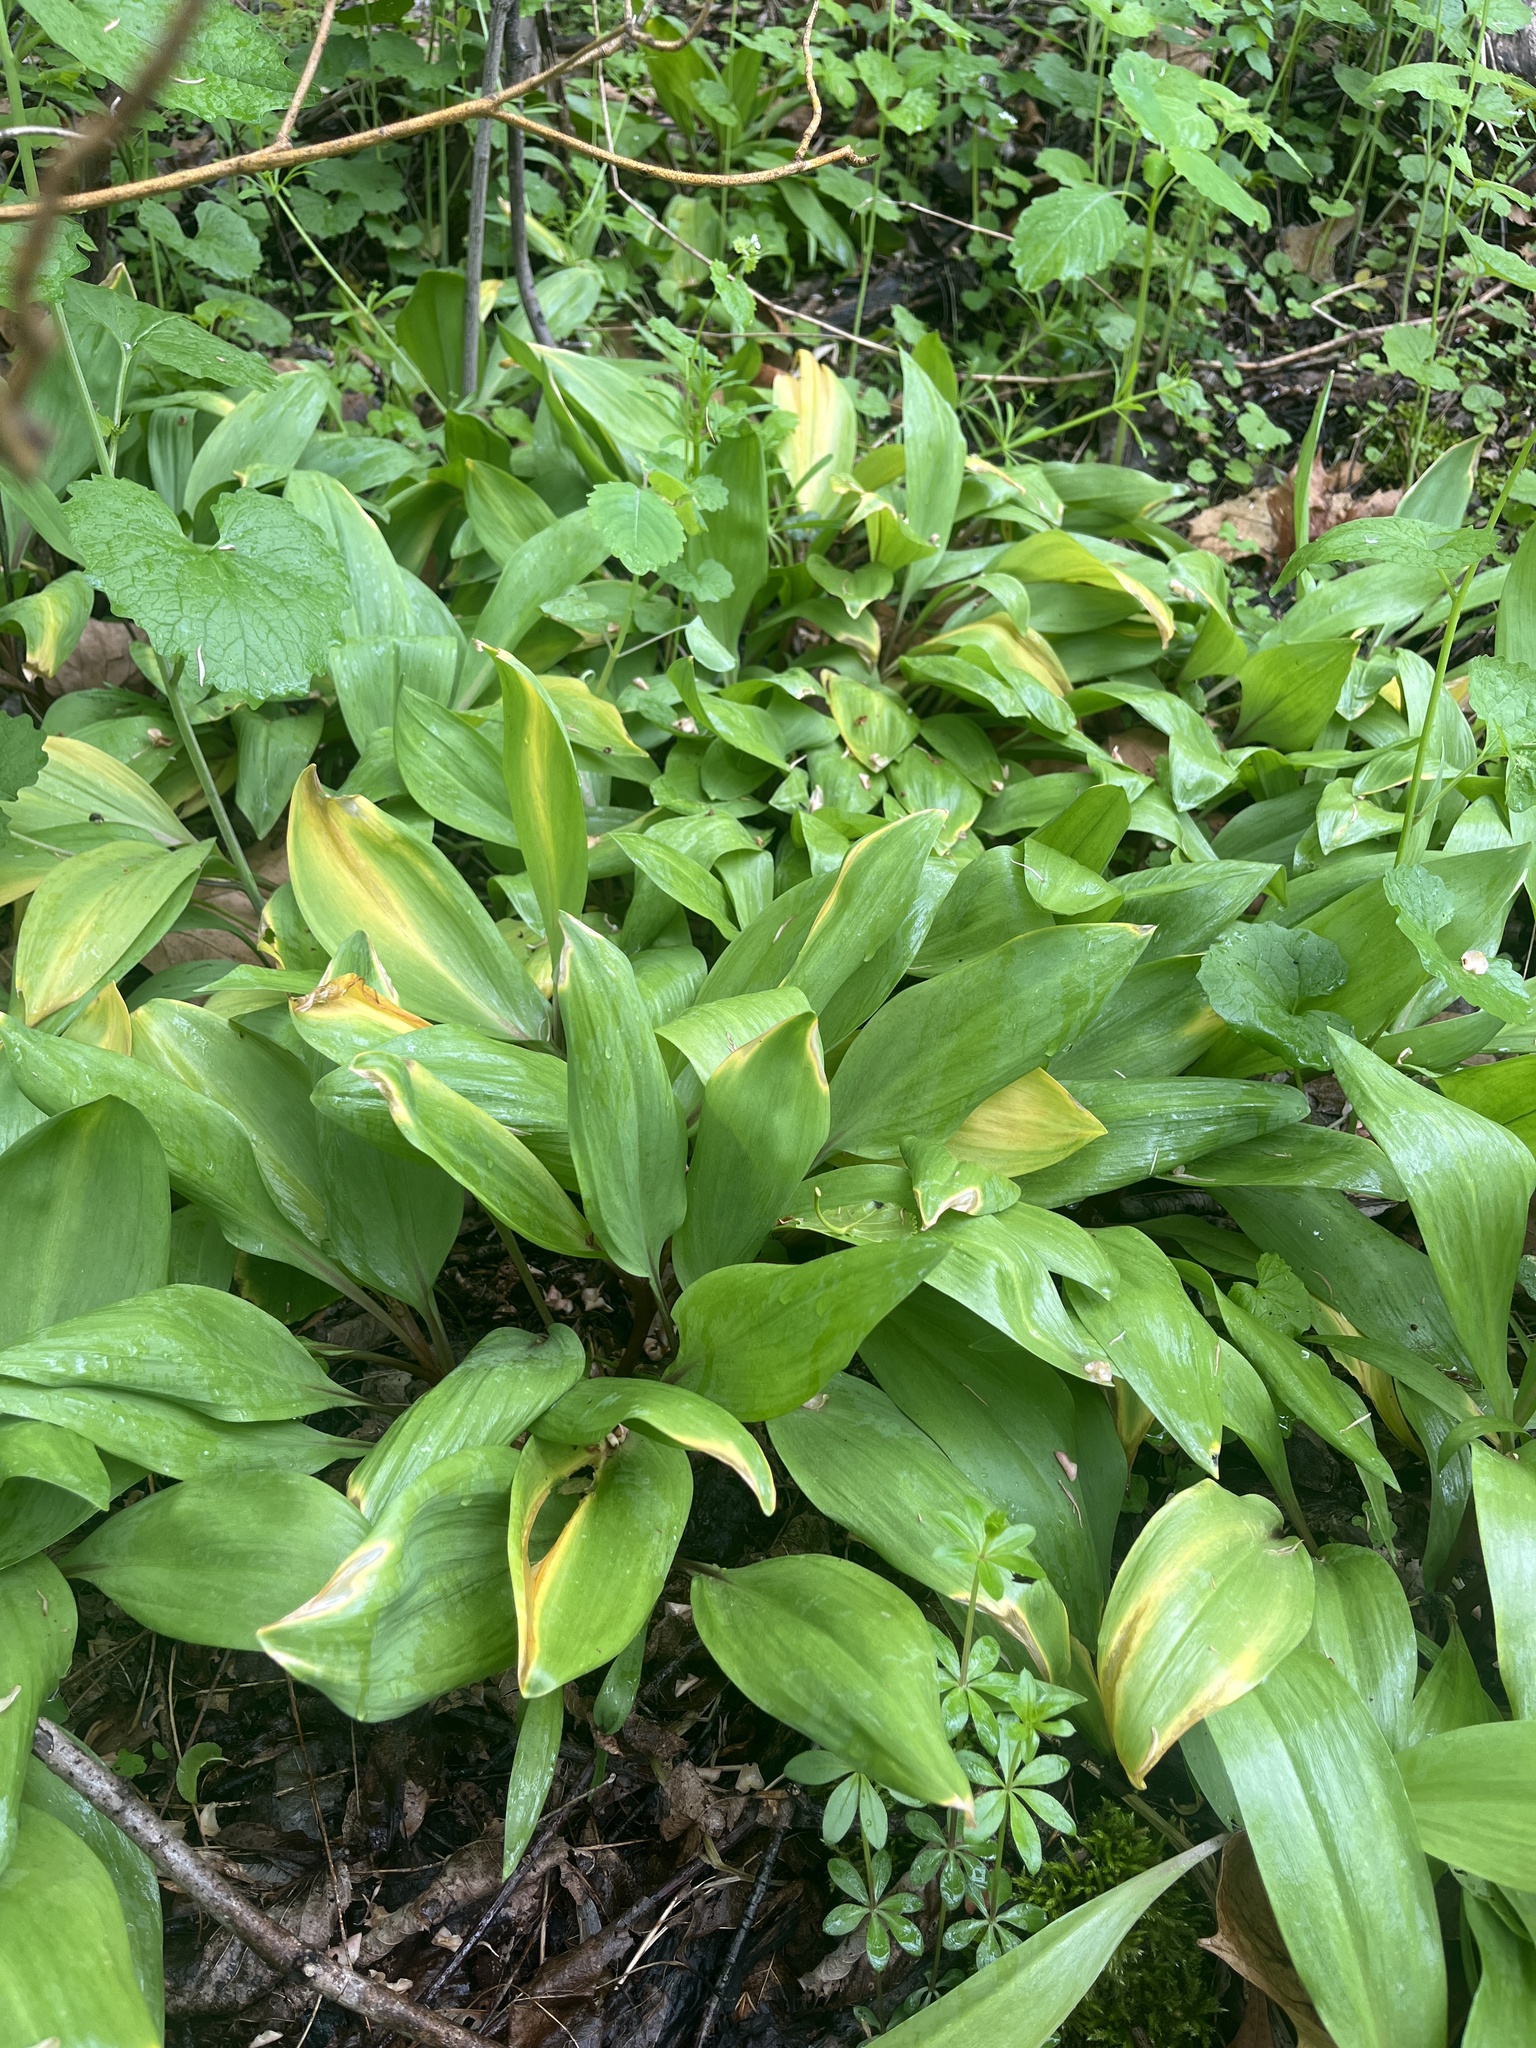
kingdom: Plantae
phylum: Tracheophyta
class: Liliopsida
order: Asparagales
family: Amaryllidaceae
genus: Allium
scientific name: Allium tricoccum
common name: Ramp
